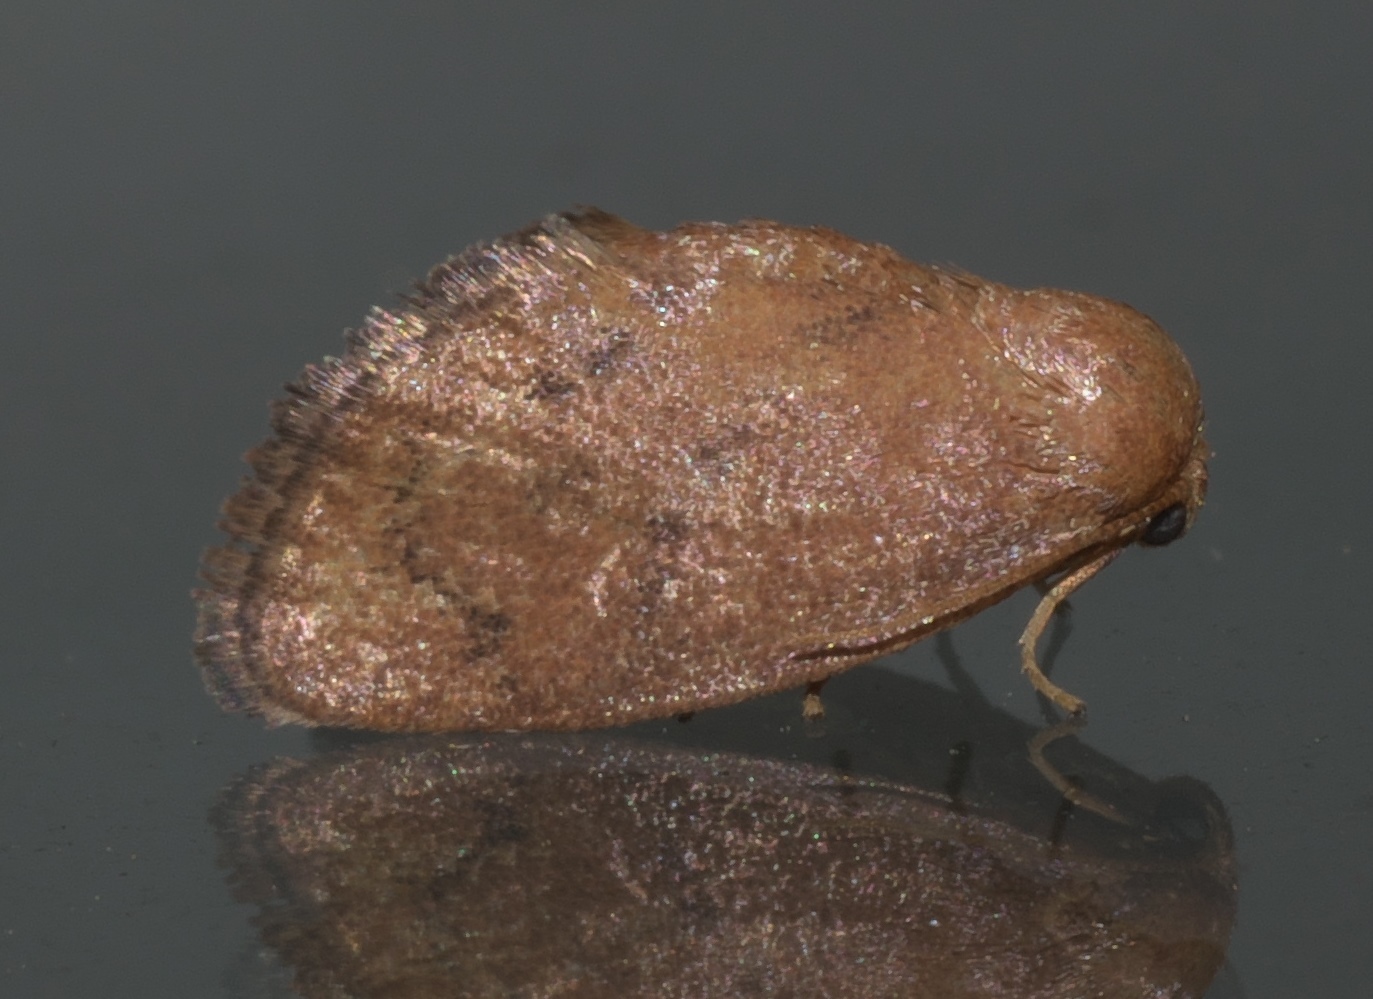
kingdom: Animalia
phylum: Arthropoda
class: Insecta
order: Lepidoptera
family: Limacodidae
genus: Heterogenea
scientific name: Heterogenea shurtleffi
